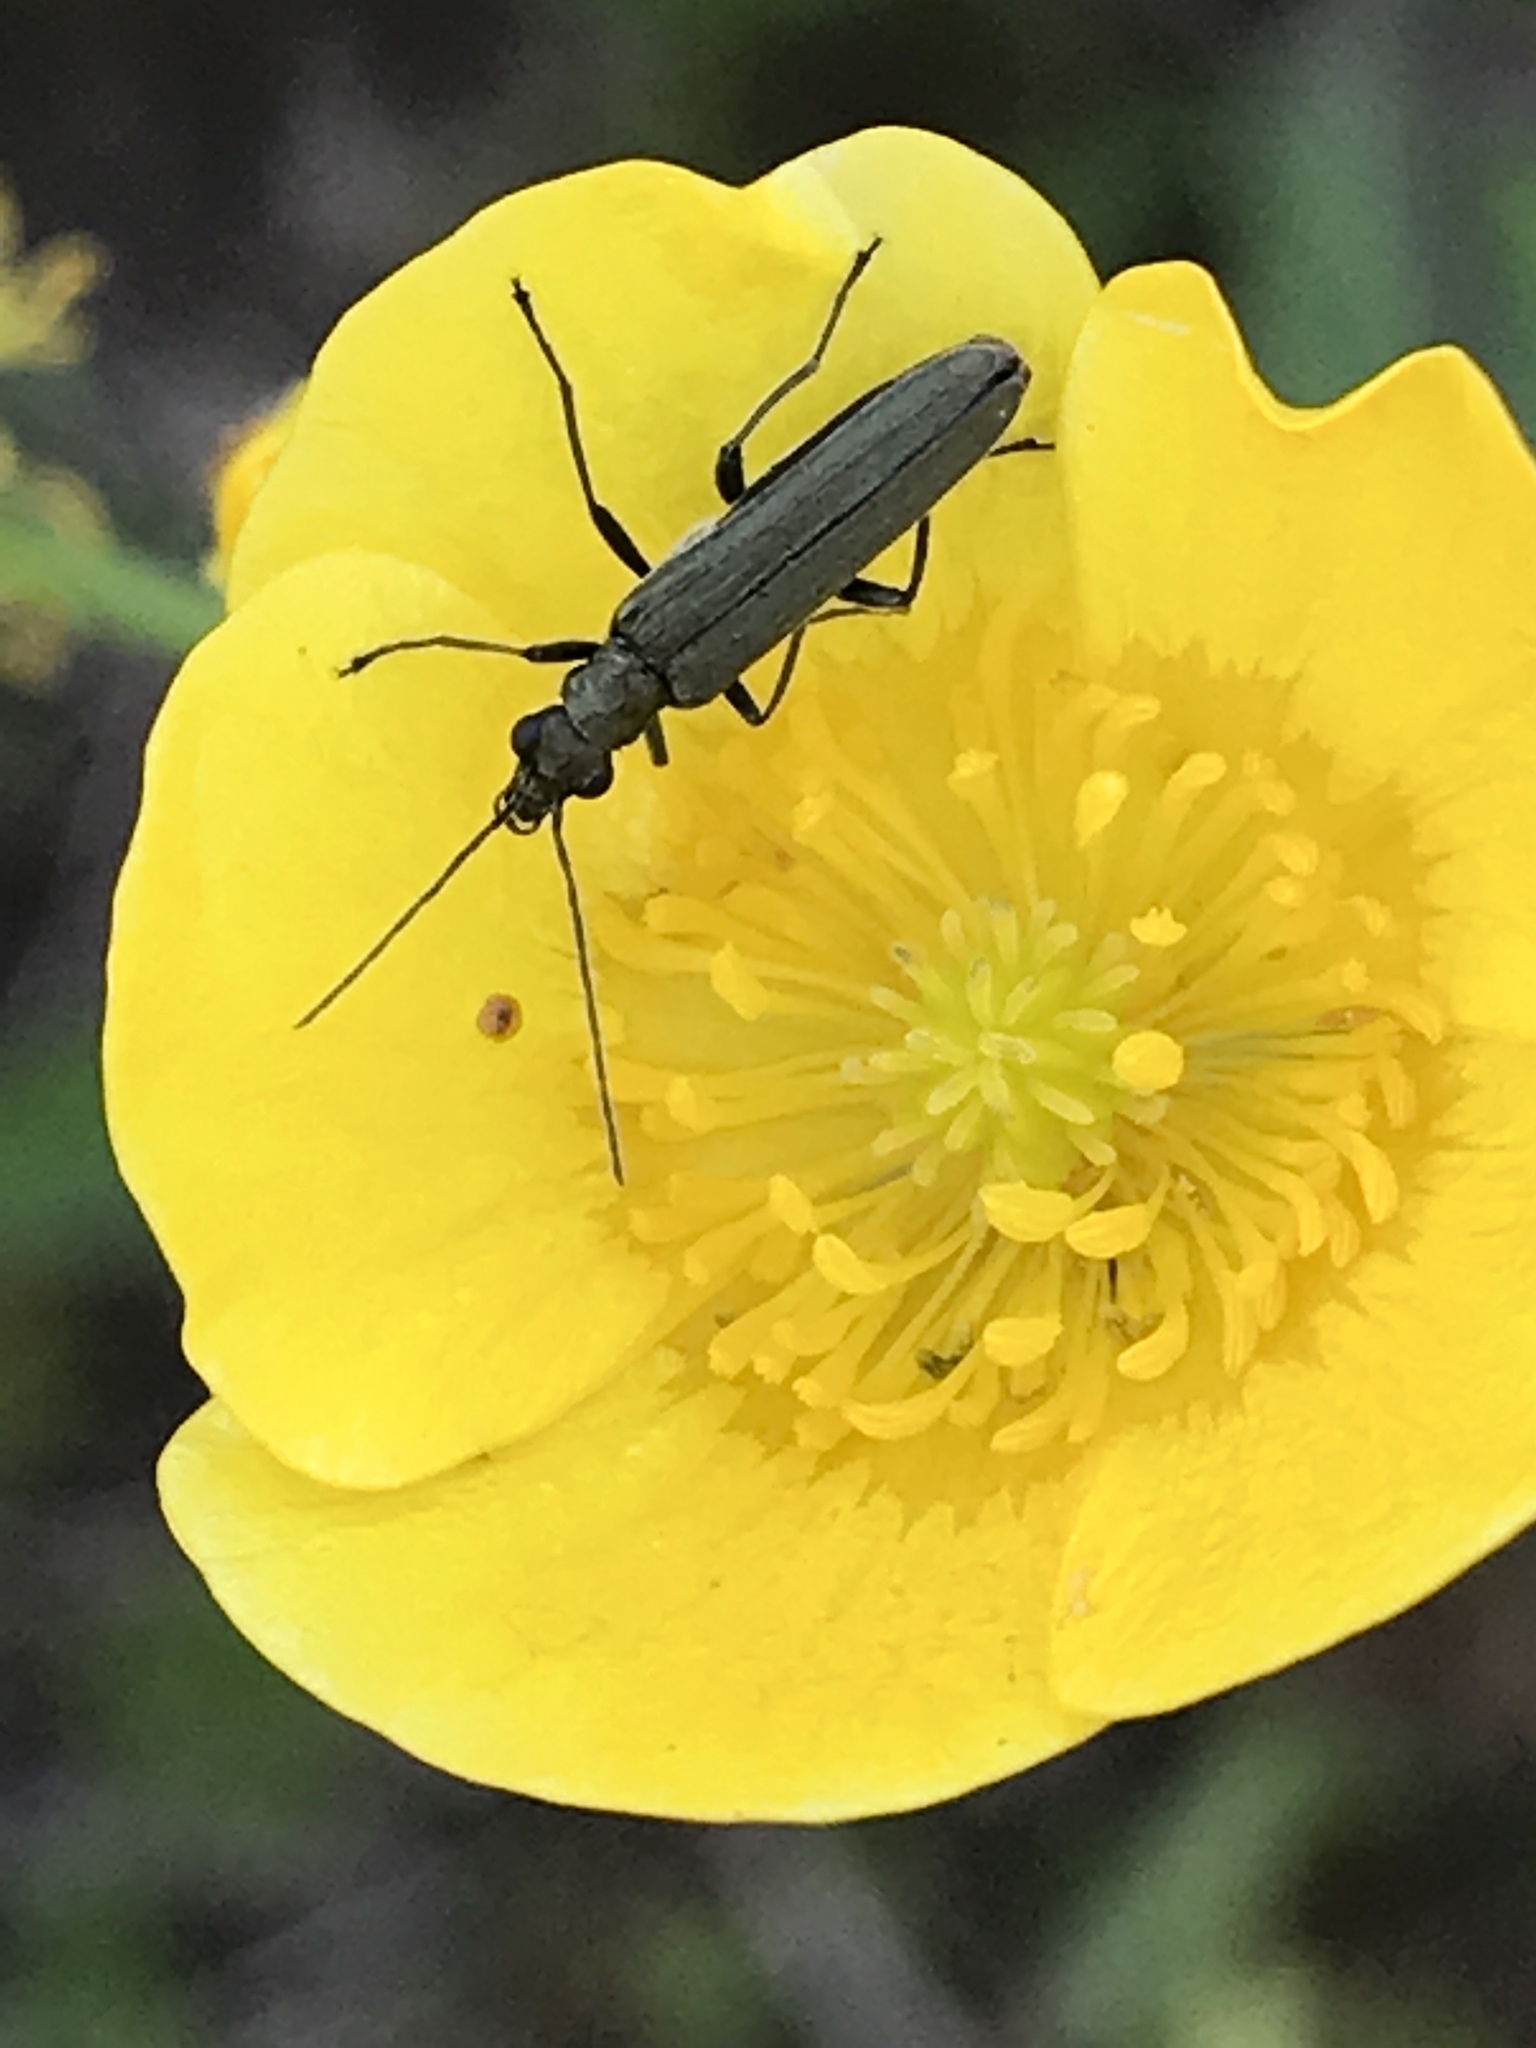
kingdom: Animalia
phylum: Arthropoda
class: Insecta
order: Coleoptera
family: Oedemeridae
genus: Oedemera
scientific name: Oedemera lurida
